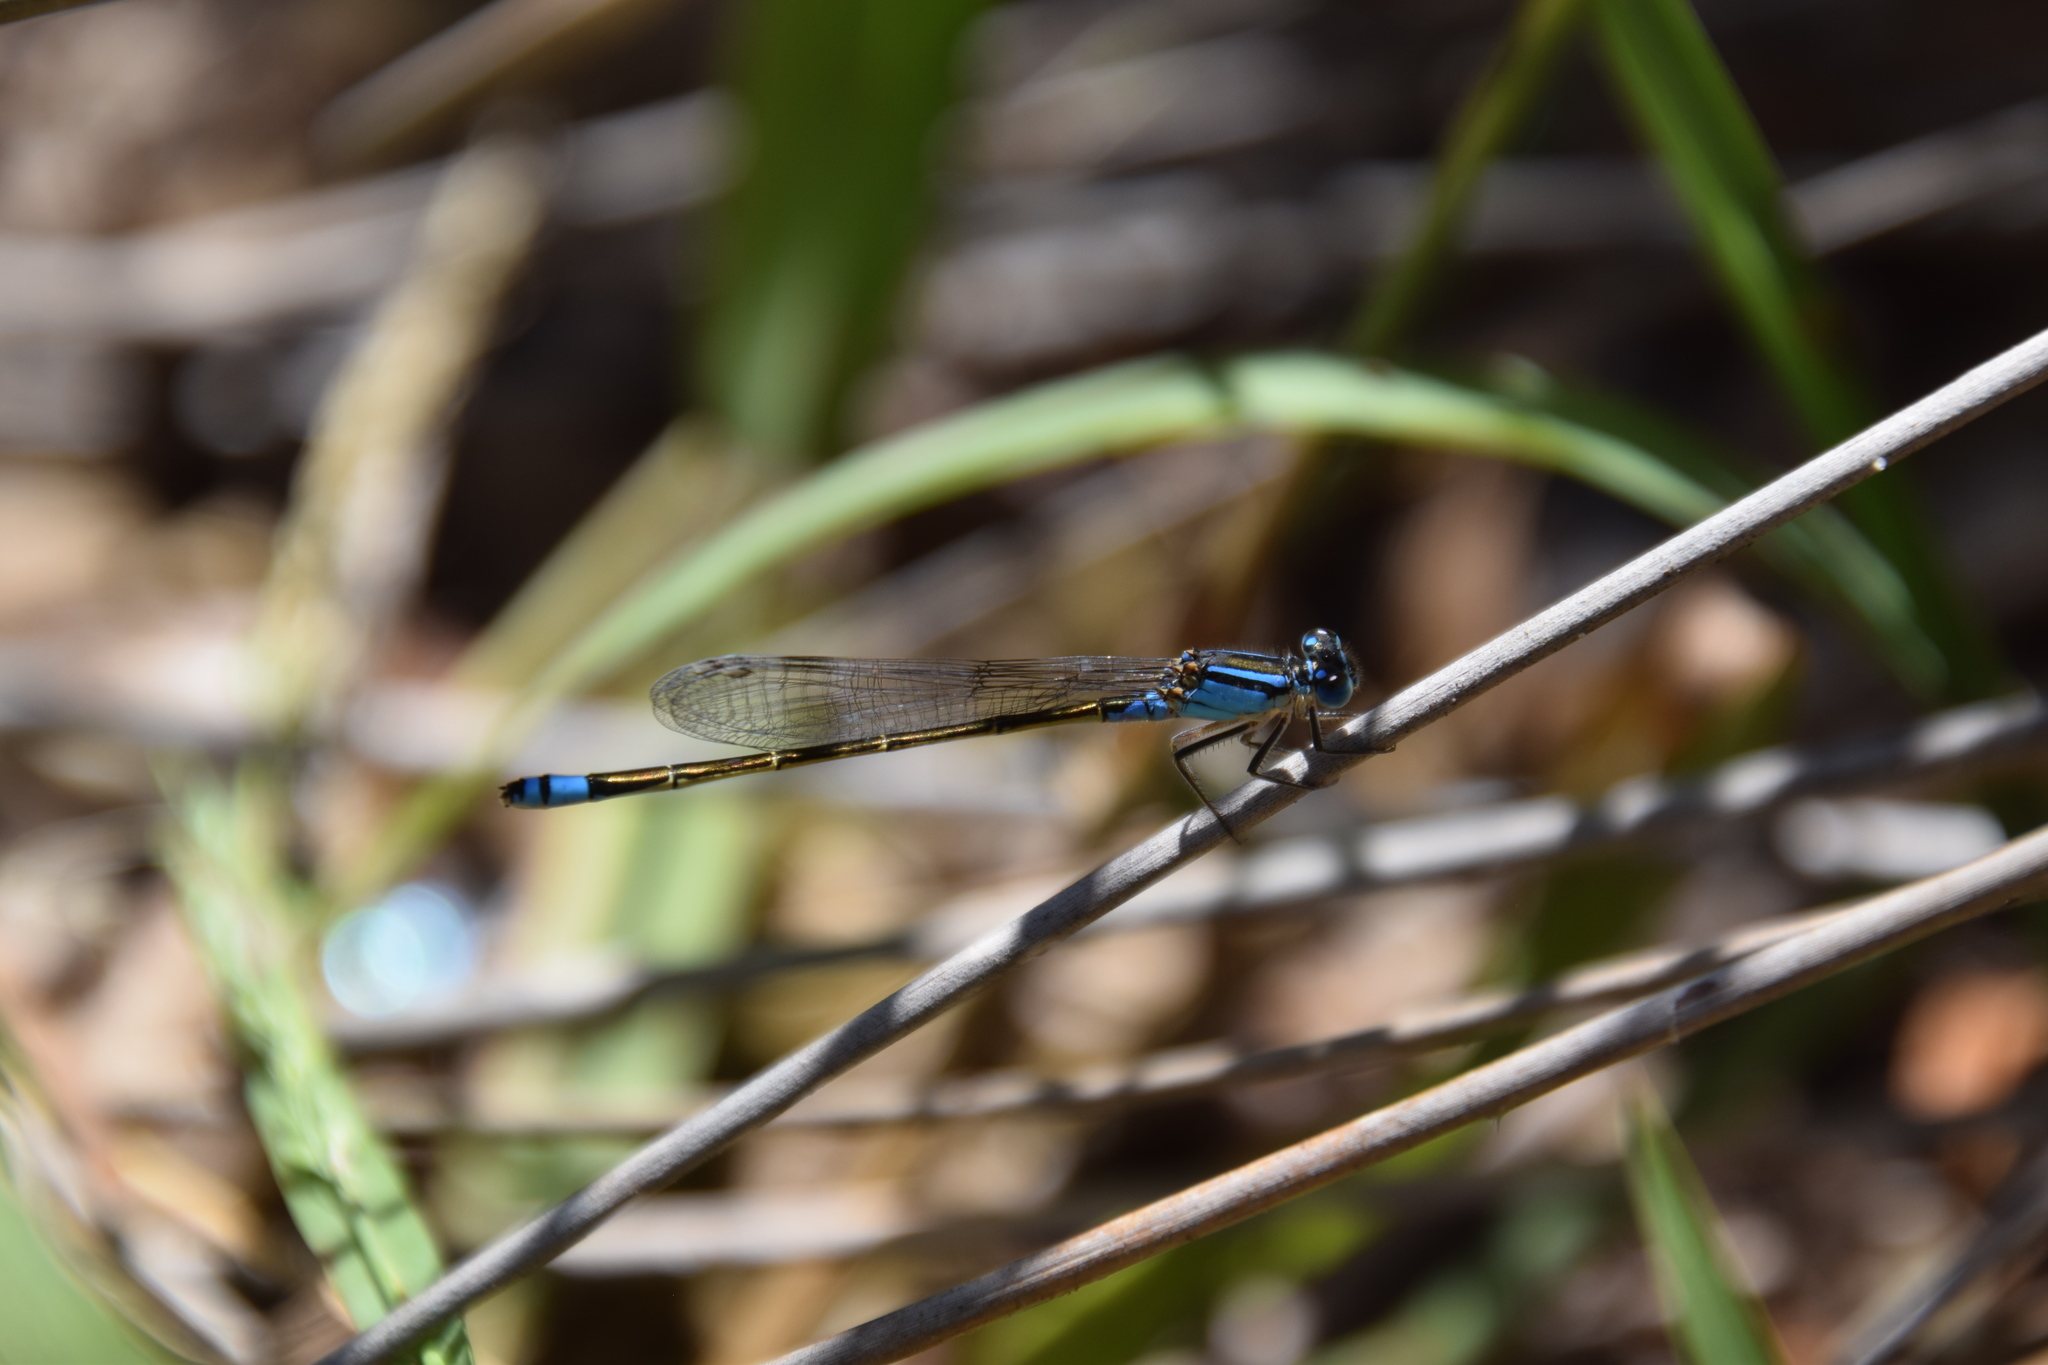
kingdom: Animalia
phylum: Arthropoda
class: Insecta
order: Odonata
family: Coenagrionidae
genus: Ischnura
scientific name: Ischnura heterosticta
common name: Common bluetail
